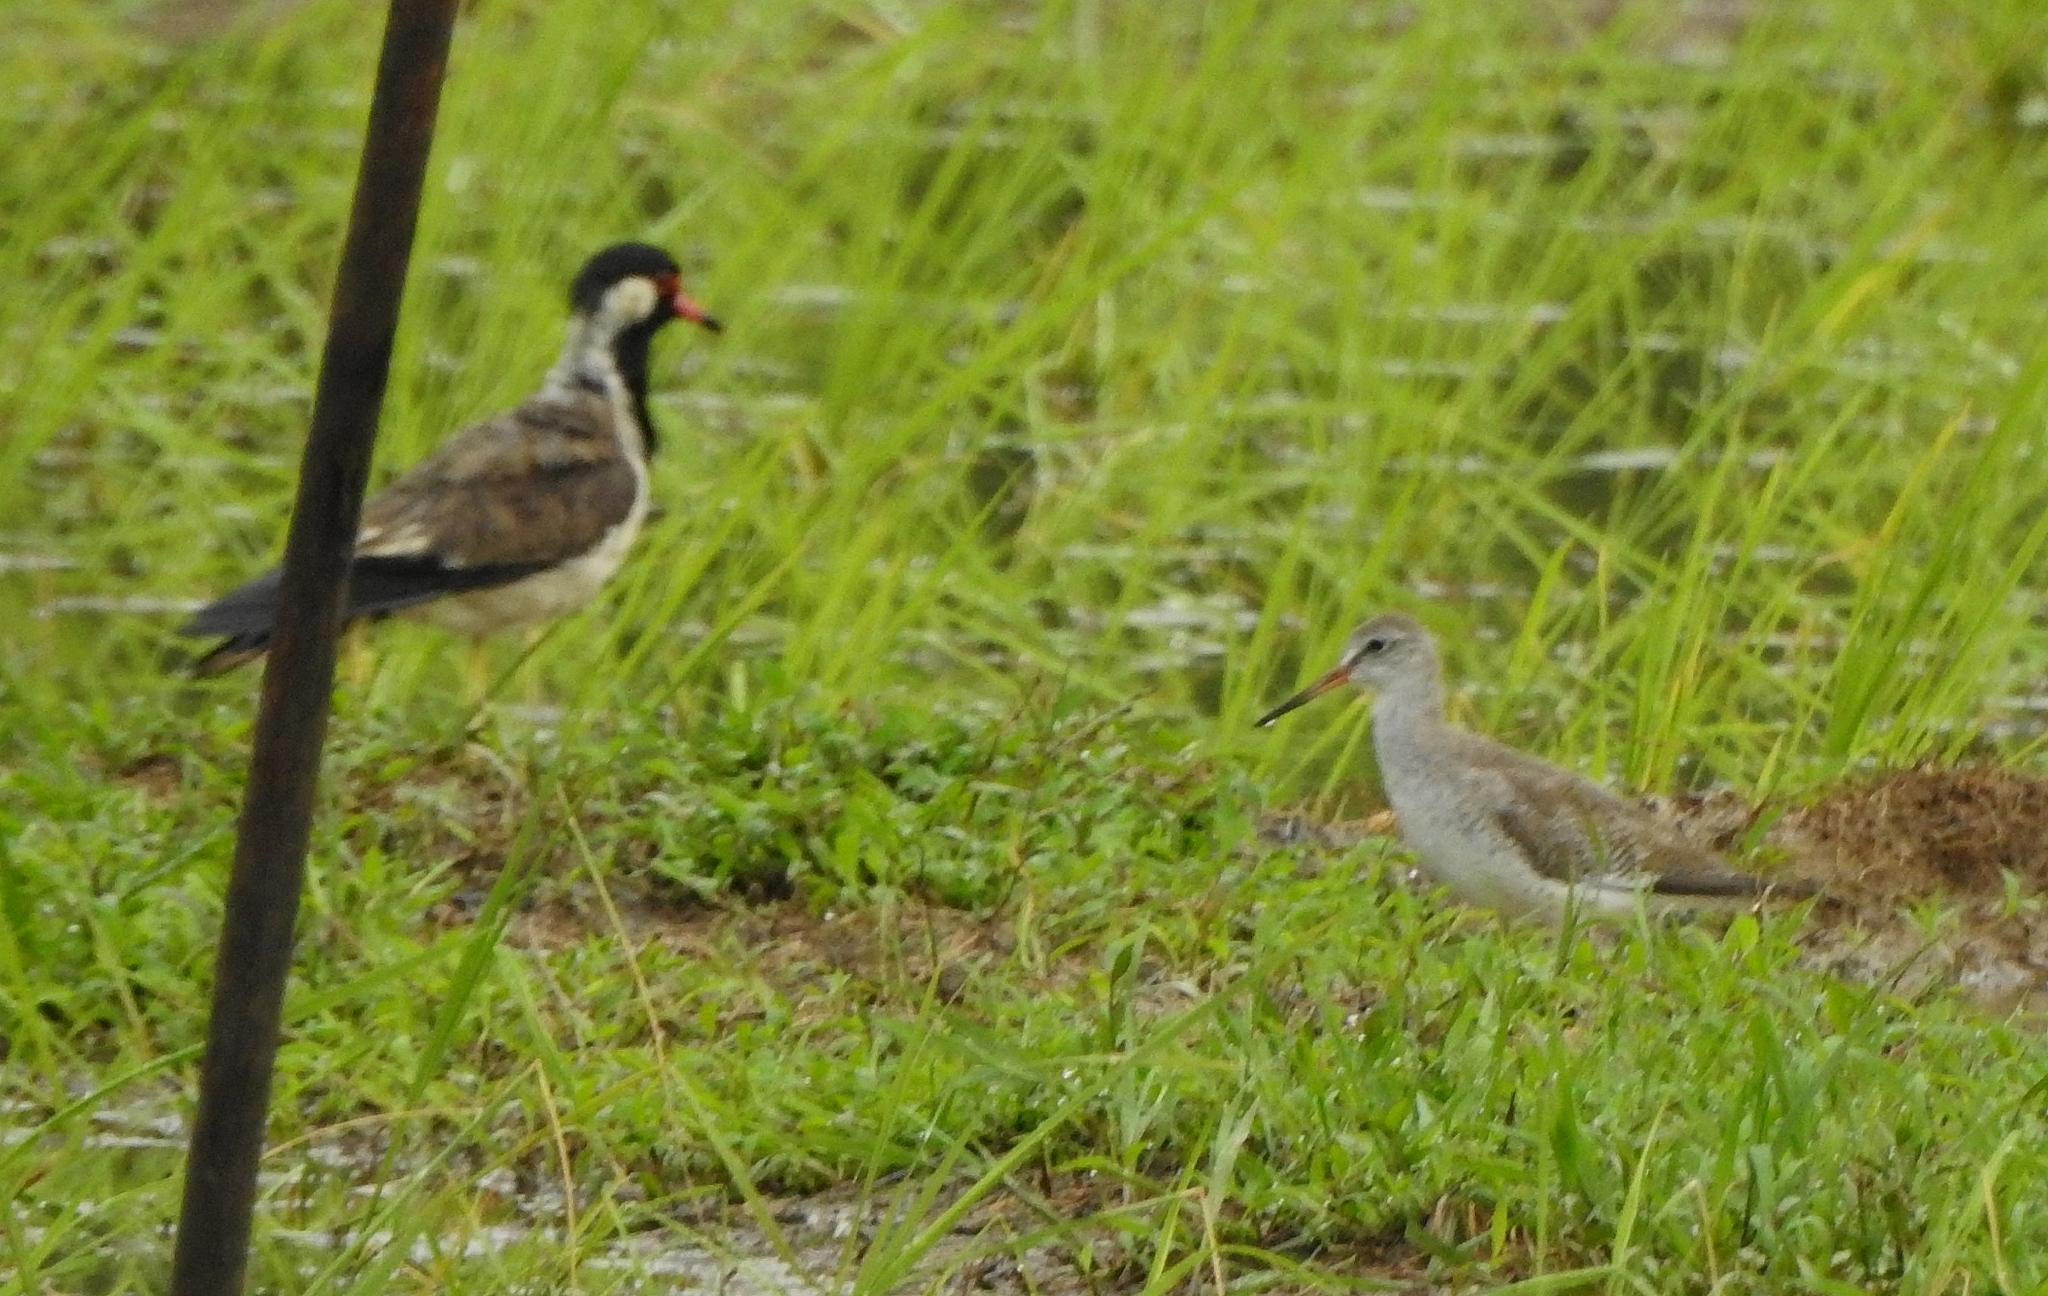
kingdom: Animalia
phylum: Chordata
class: Aves
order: Charadriiformes
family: Scolopacidae
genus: Tringa
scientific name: Tringa totanus
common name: Common redshank
